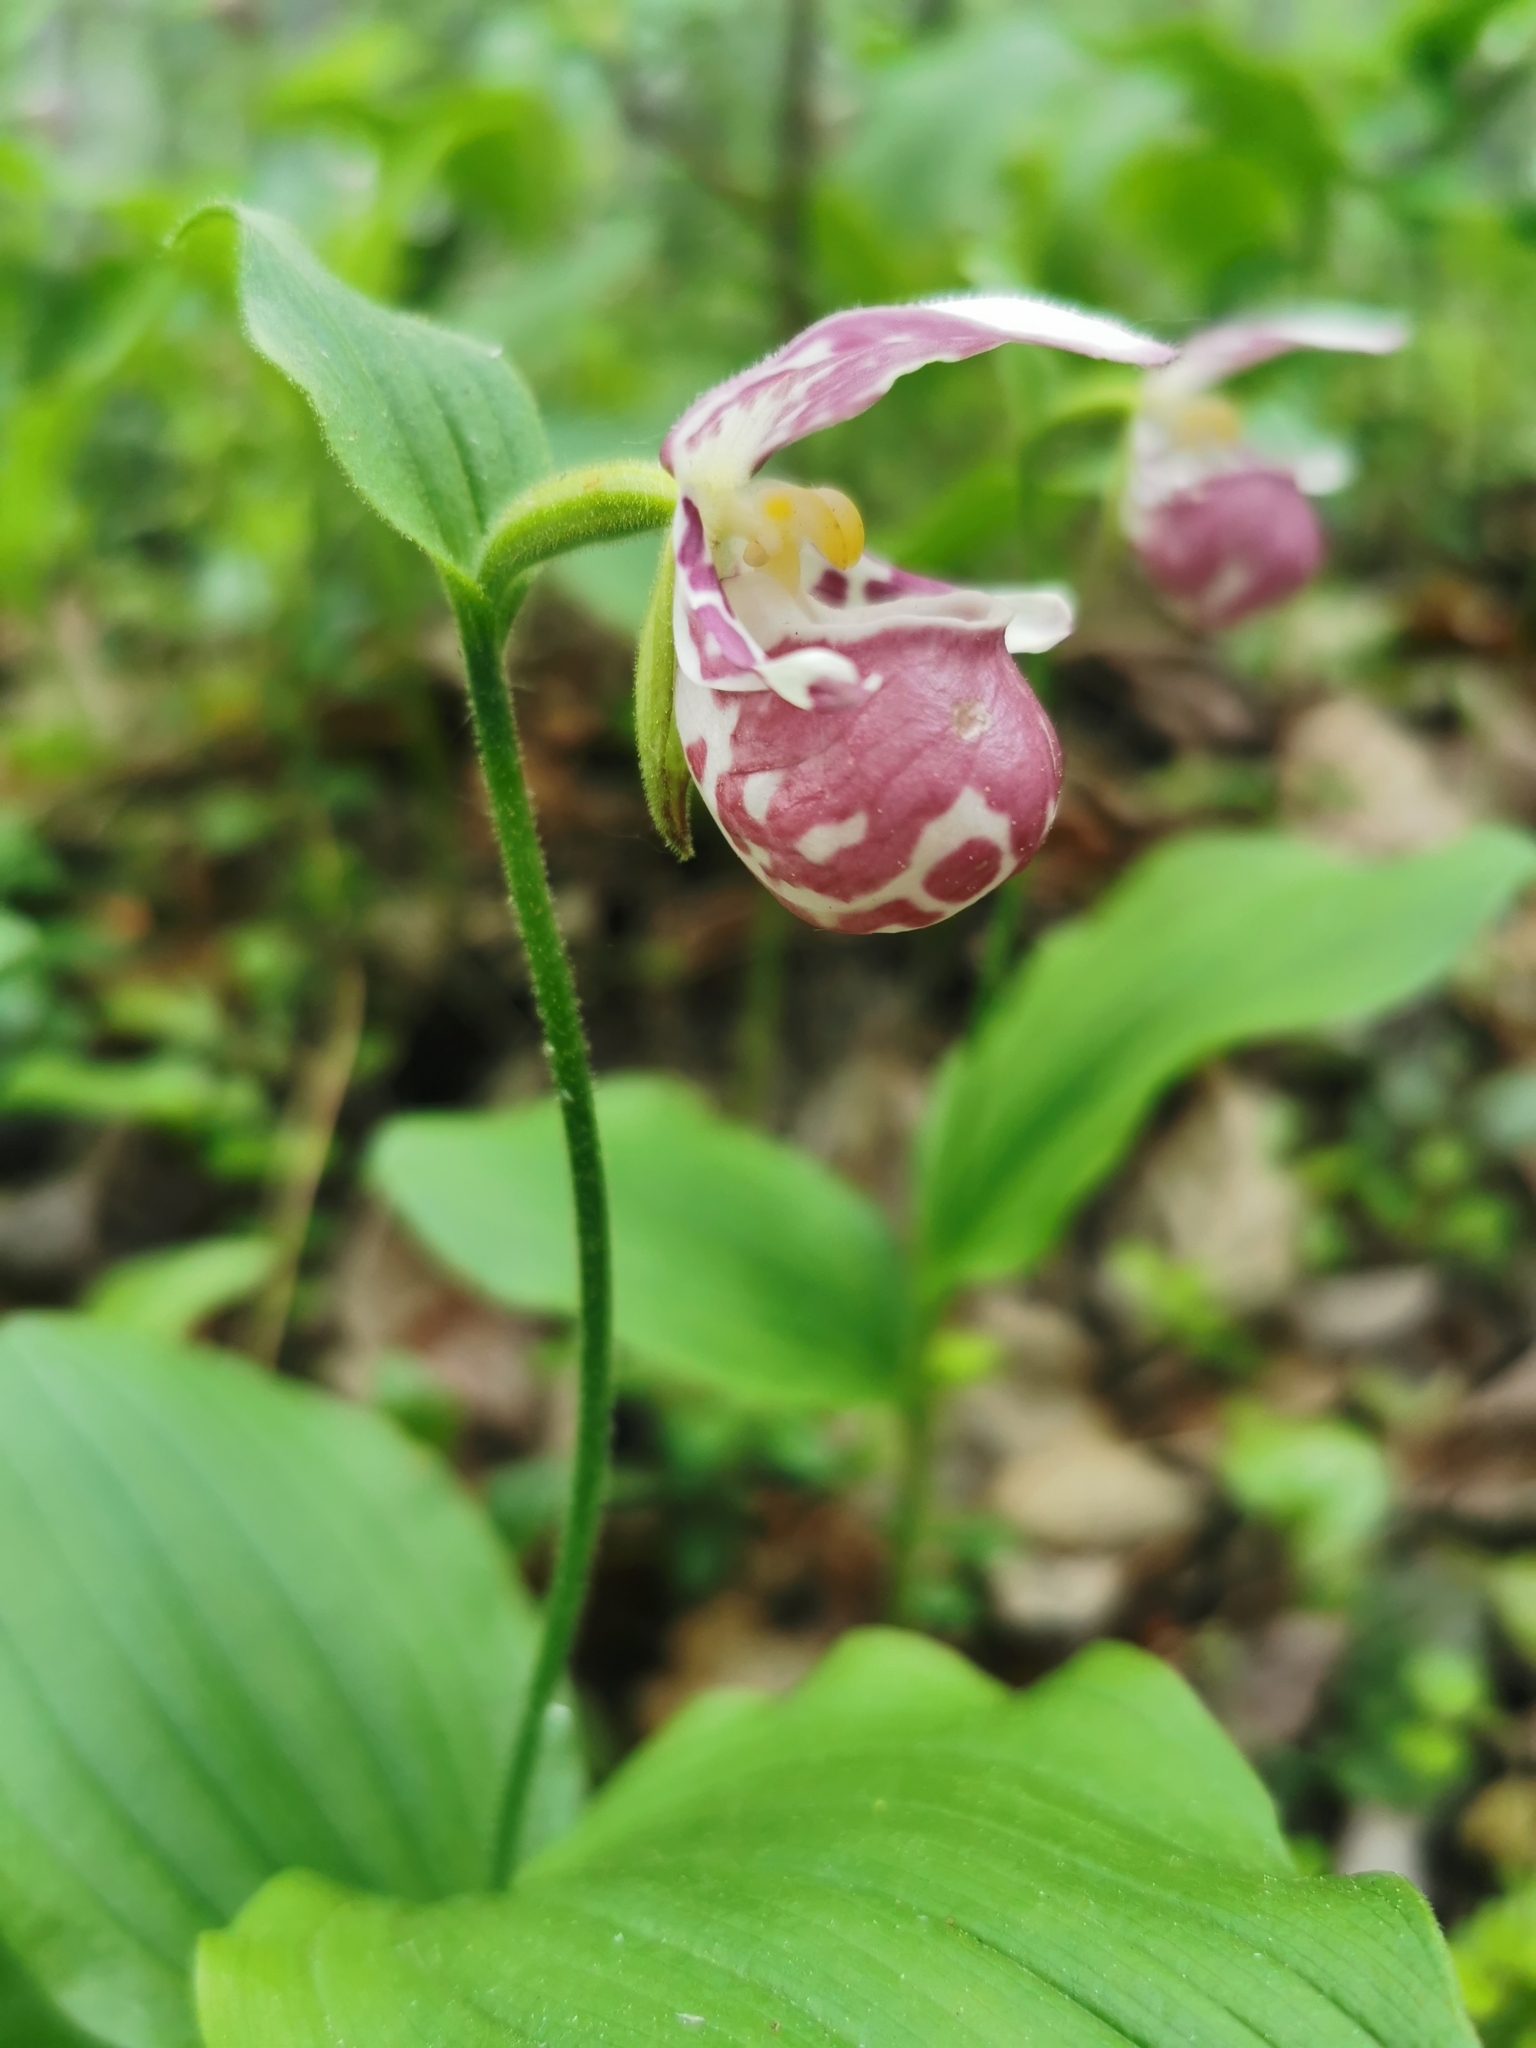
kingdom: Plantae
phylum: Tracheophyta
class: Liliopsida
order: Asparagales
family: Orchidaceae
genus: Cypripedium
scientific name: Cypripedium guttatum
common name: Pink lady slipper
